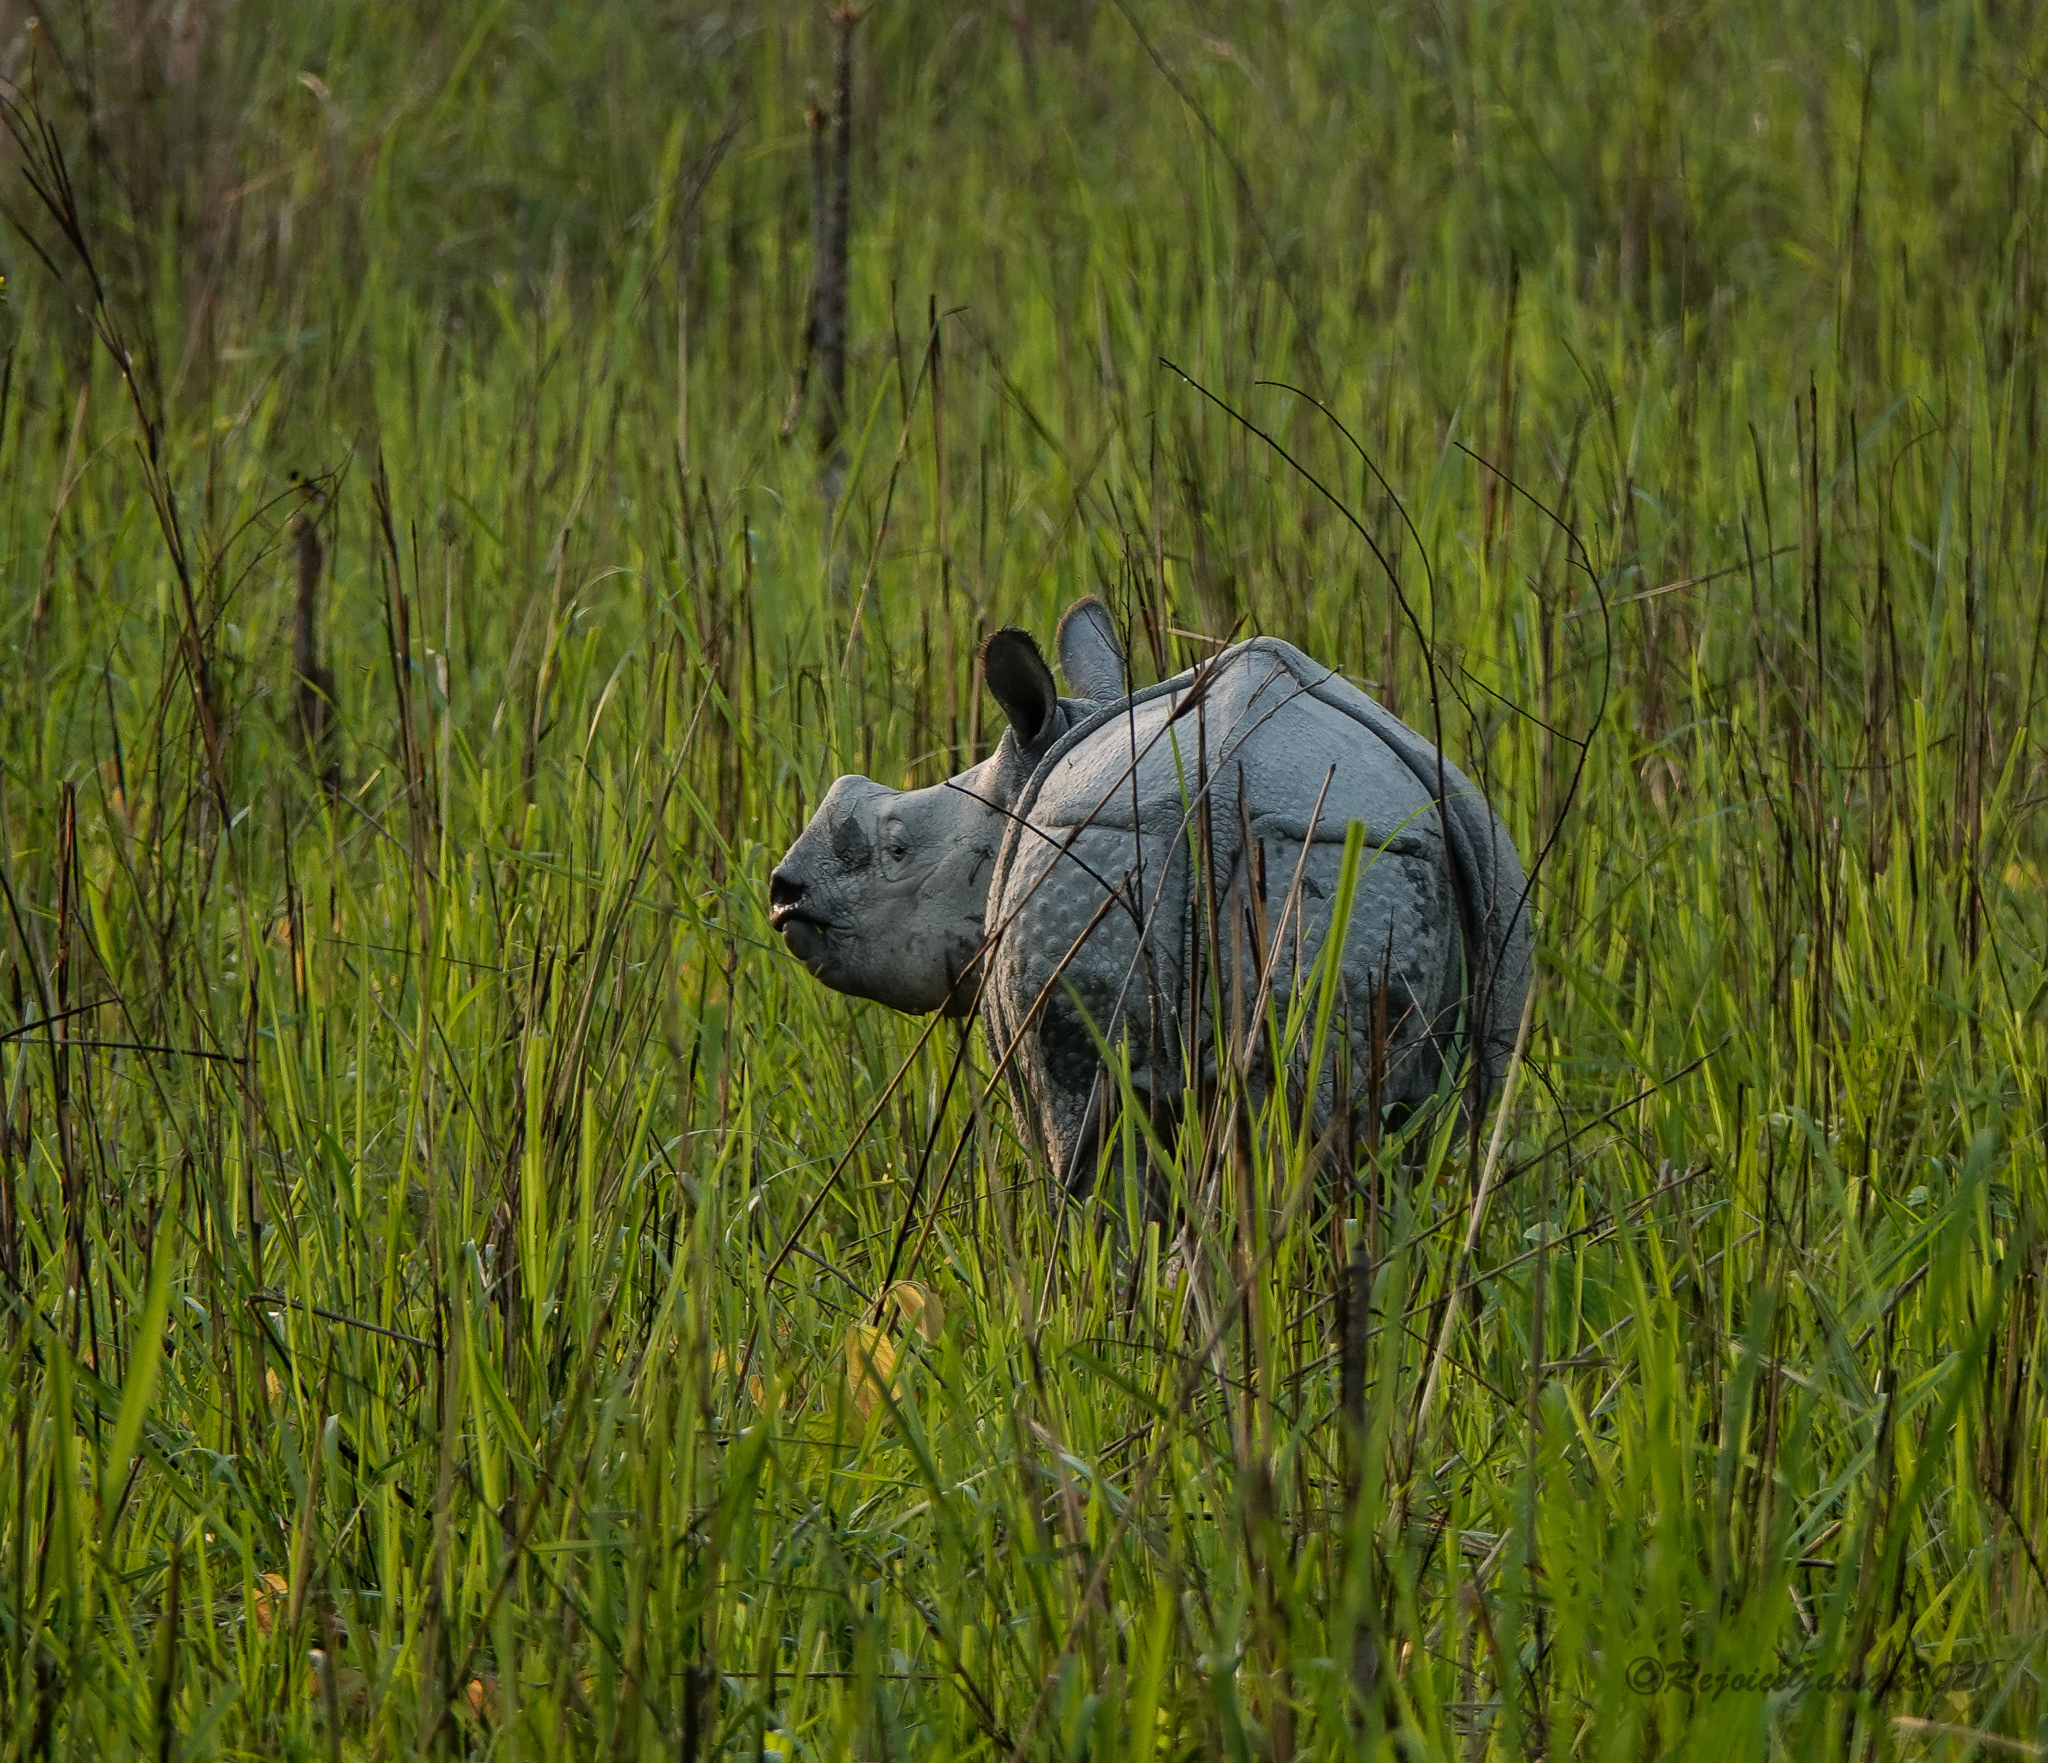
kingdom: Animalia
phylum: Chordata
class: Mammalia
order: Perissodactyla
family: Rhinocerotidae
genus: Rhinoceros
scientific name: Rhinoceros unicornis
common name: Indian rhinoceros
